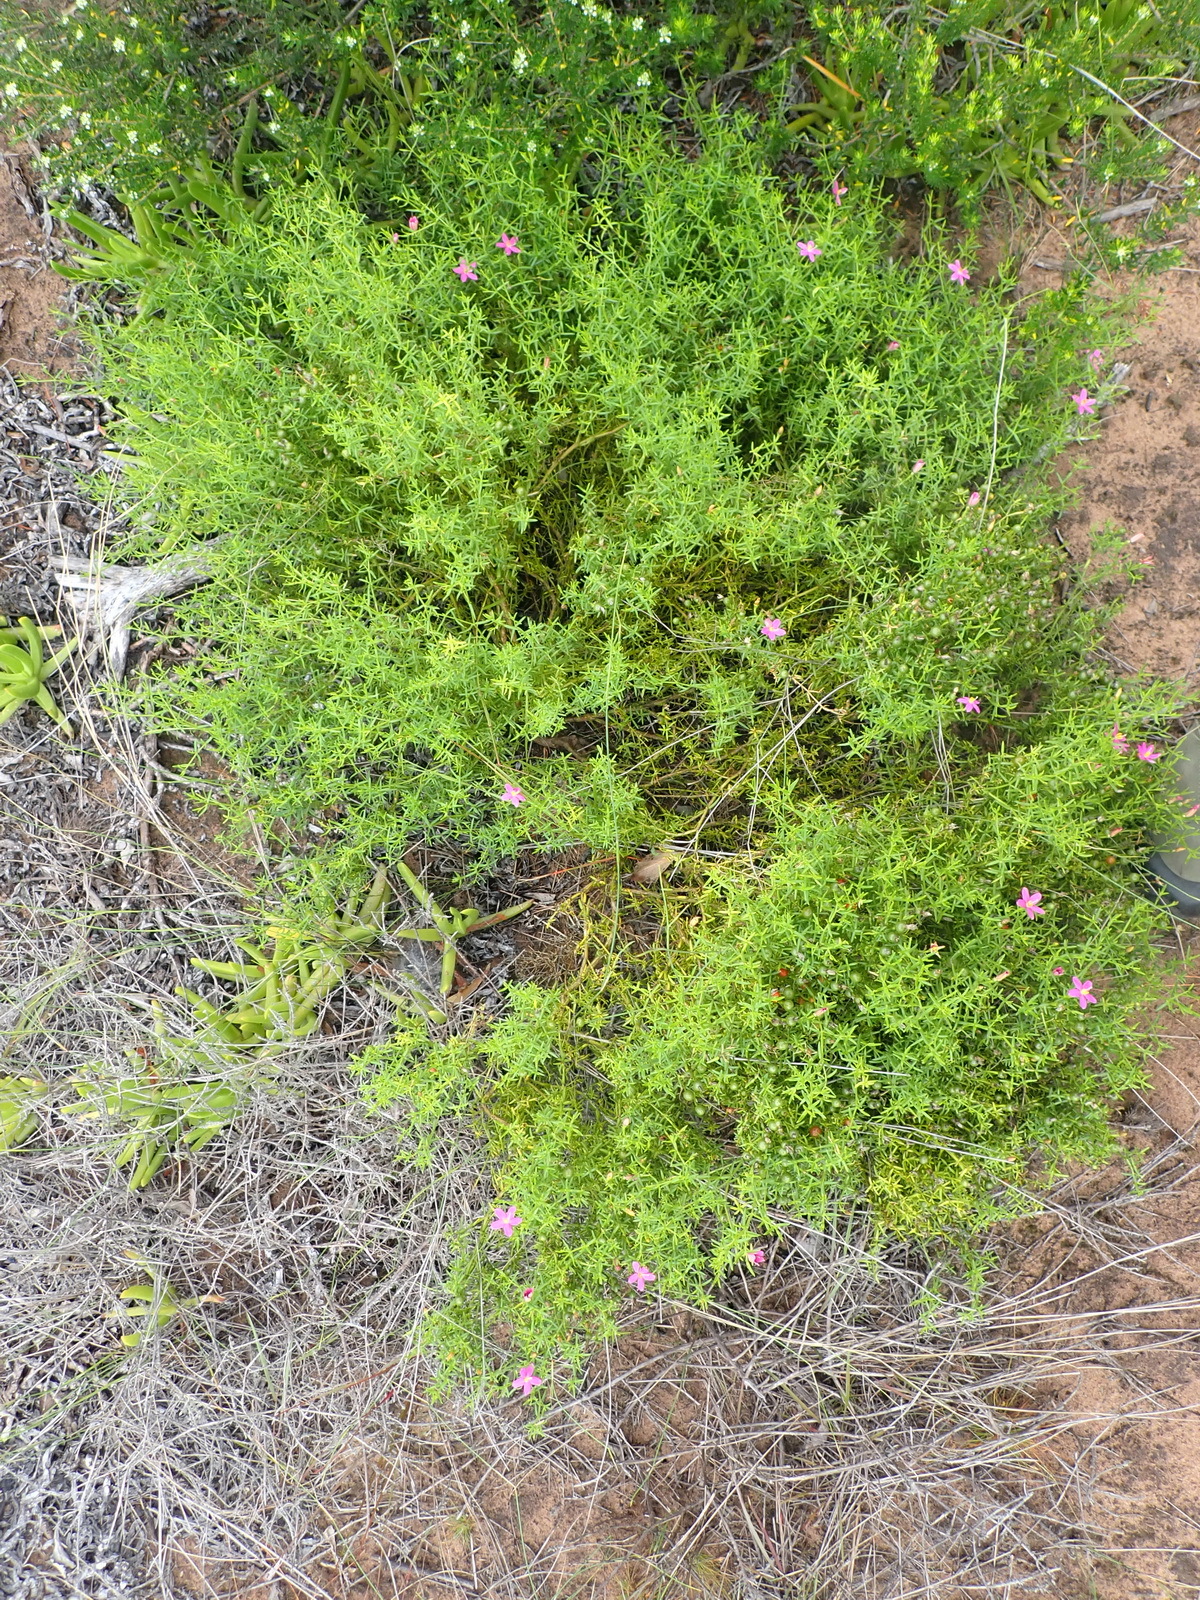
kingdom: Plantae
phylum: Tracheophyta
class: Magnoliopsida
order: Gentianales
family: Gentianaceae
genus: Chironia
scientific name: Chironia baccifera
